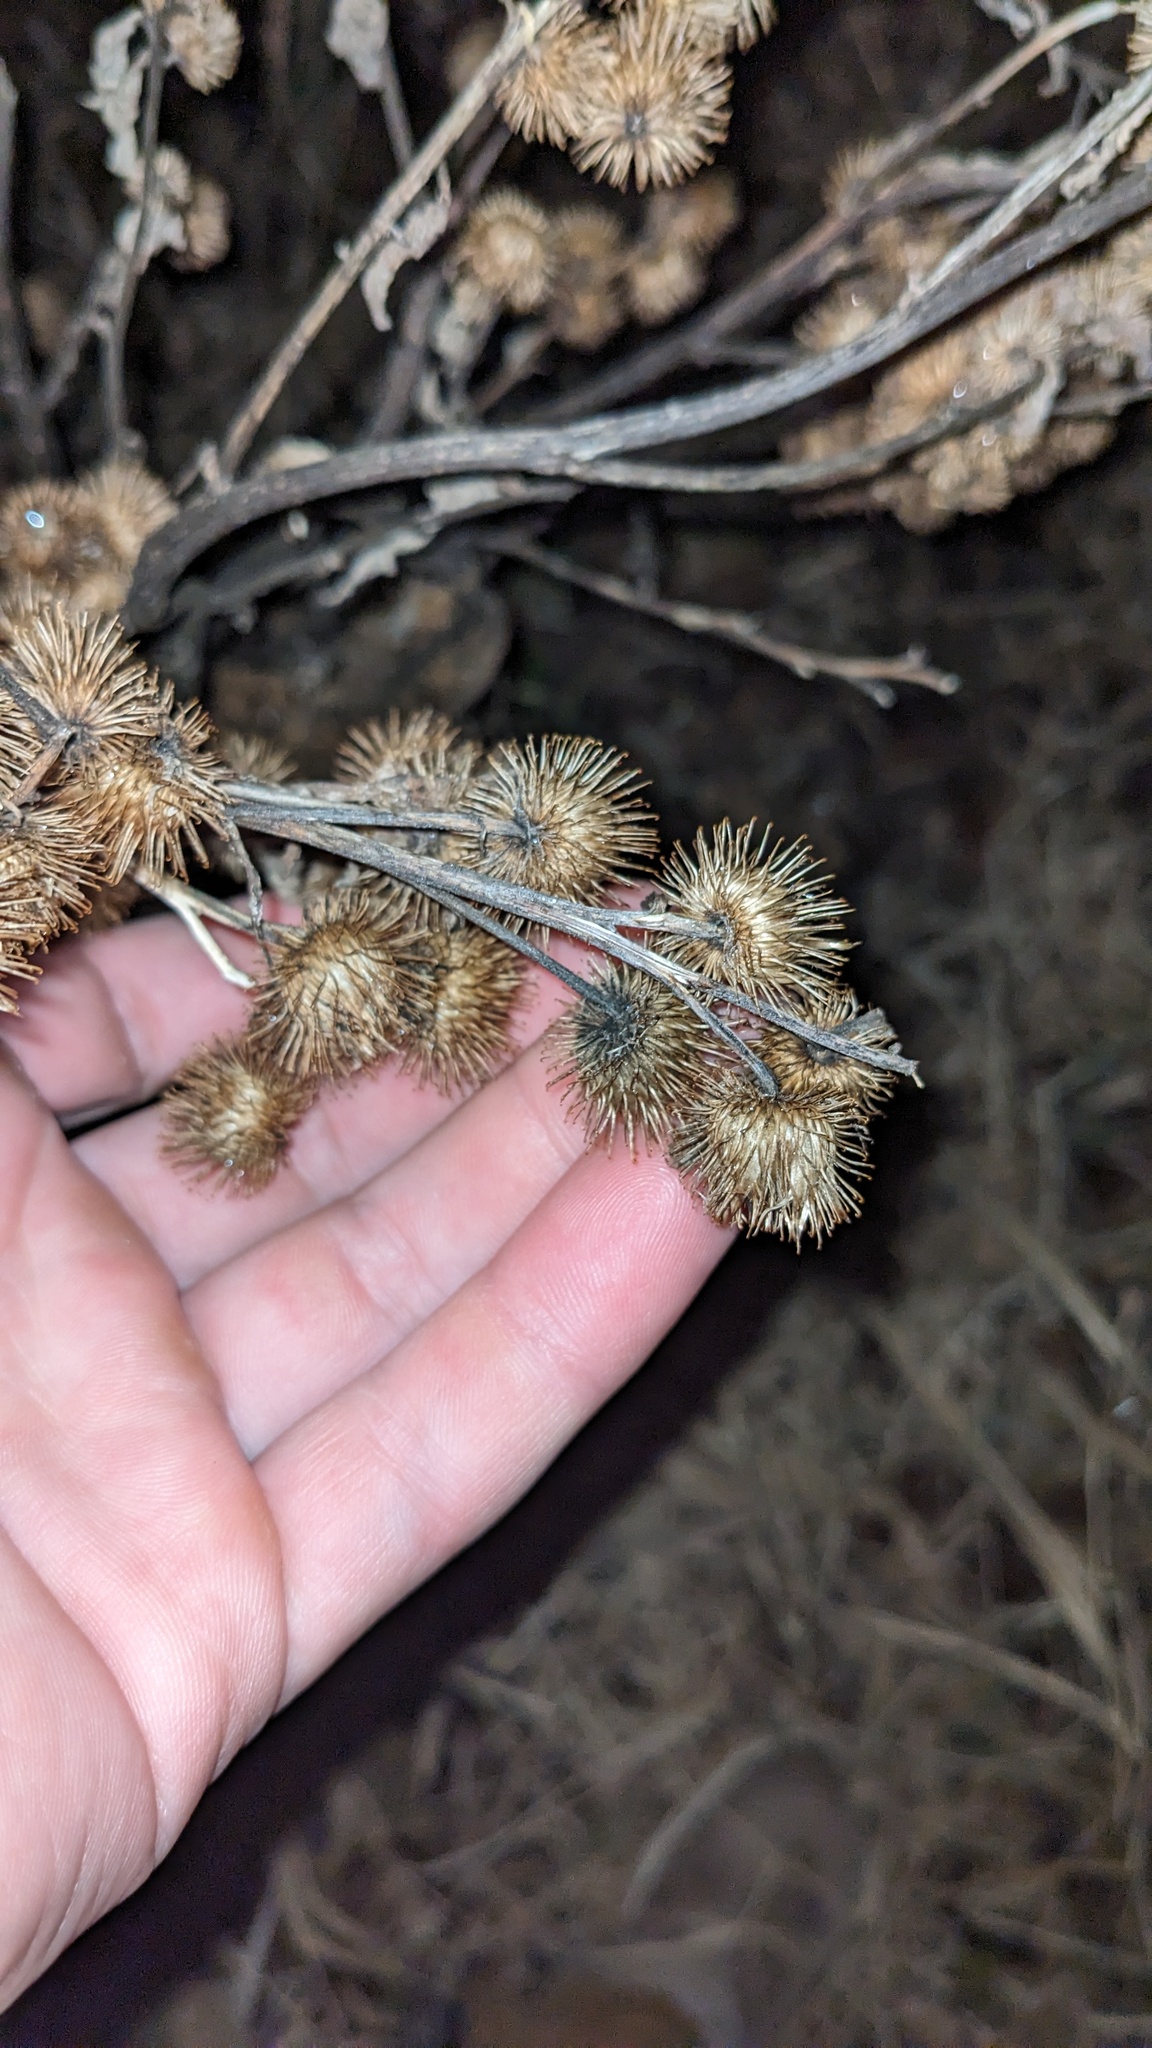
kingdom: Plantae
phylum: Tracheophyta
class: Magnoliopsida
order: Asterales
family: Asteraceae
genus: Arctium
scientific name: Arctium lappa
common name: Greater burdock
